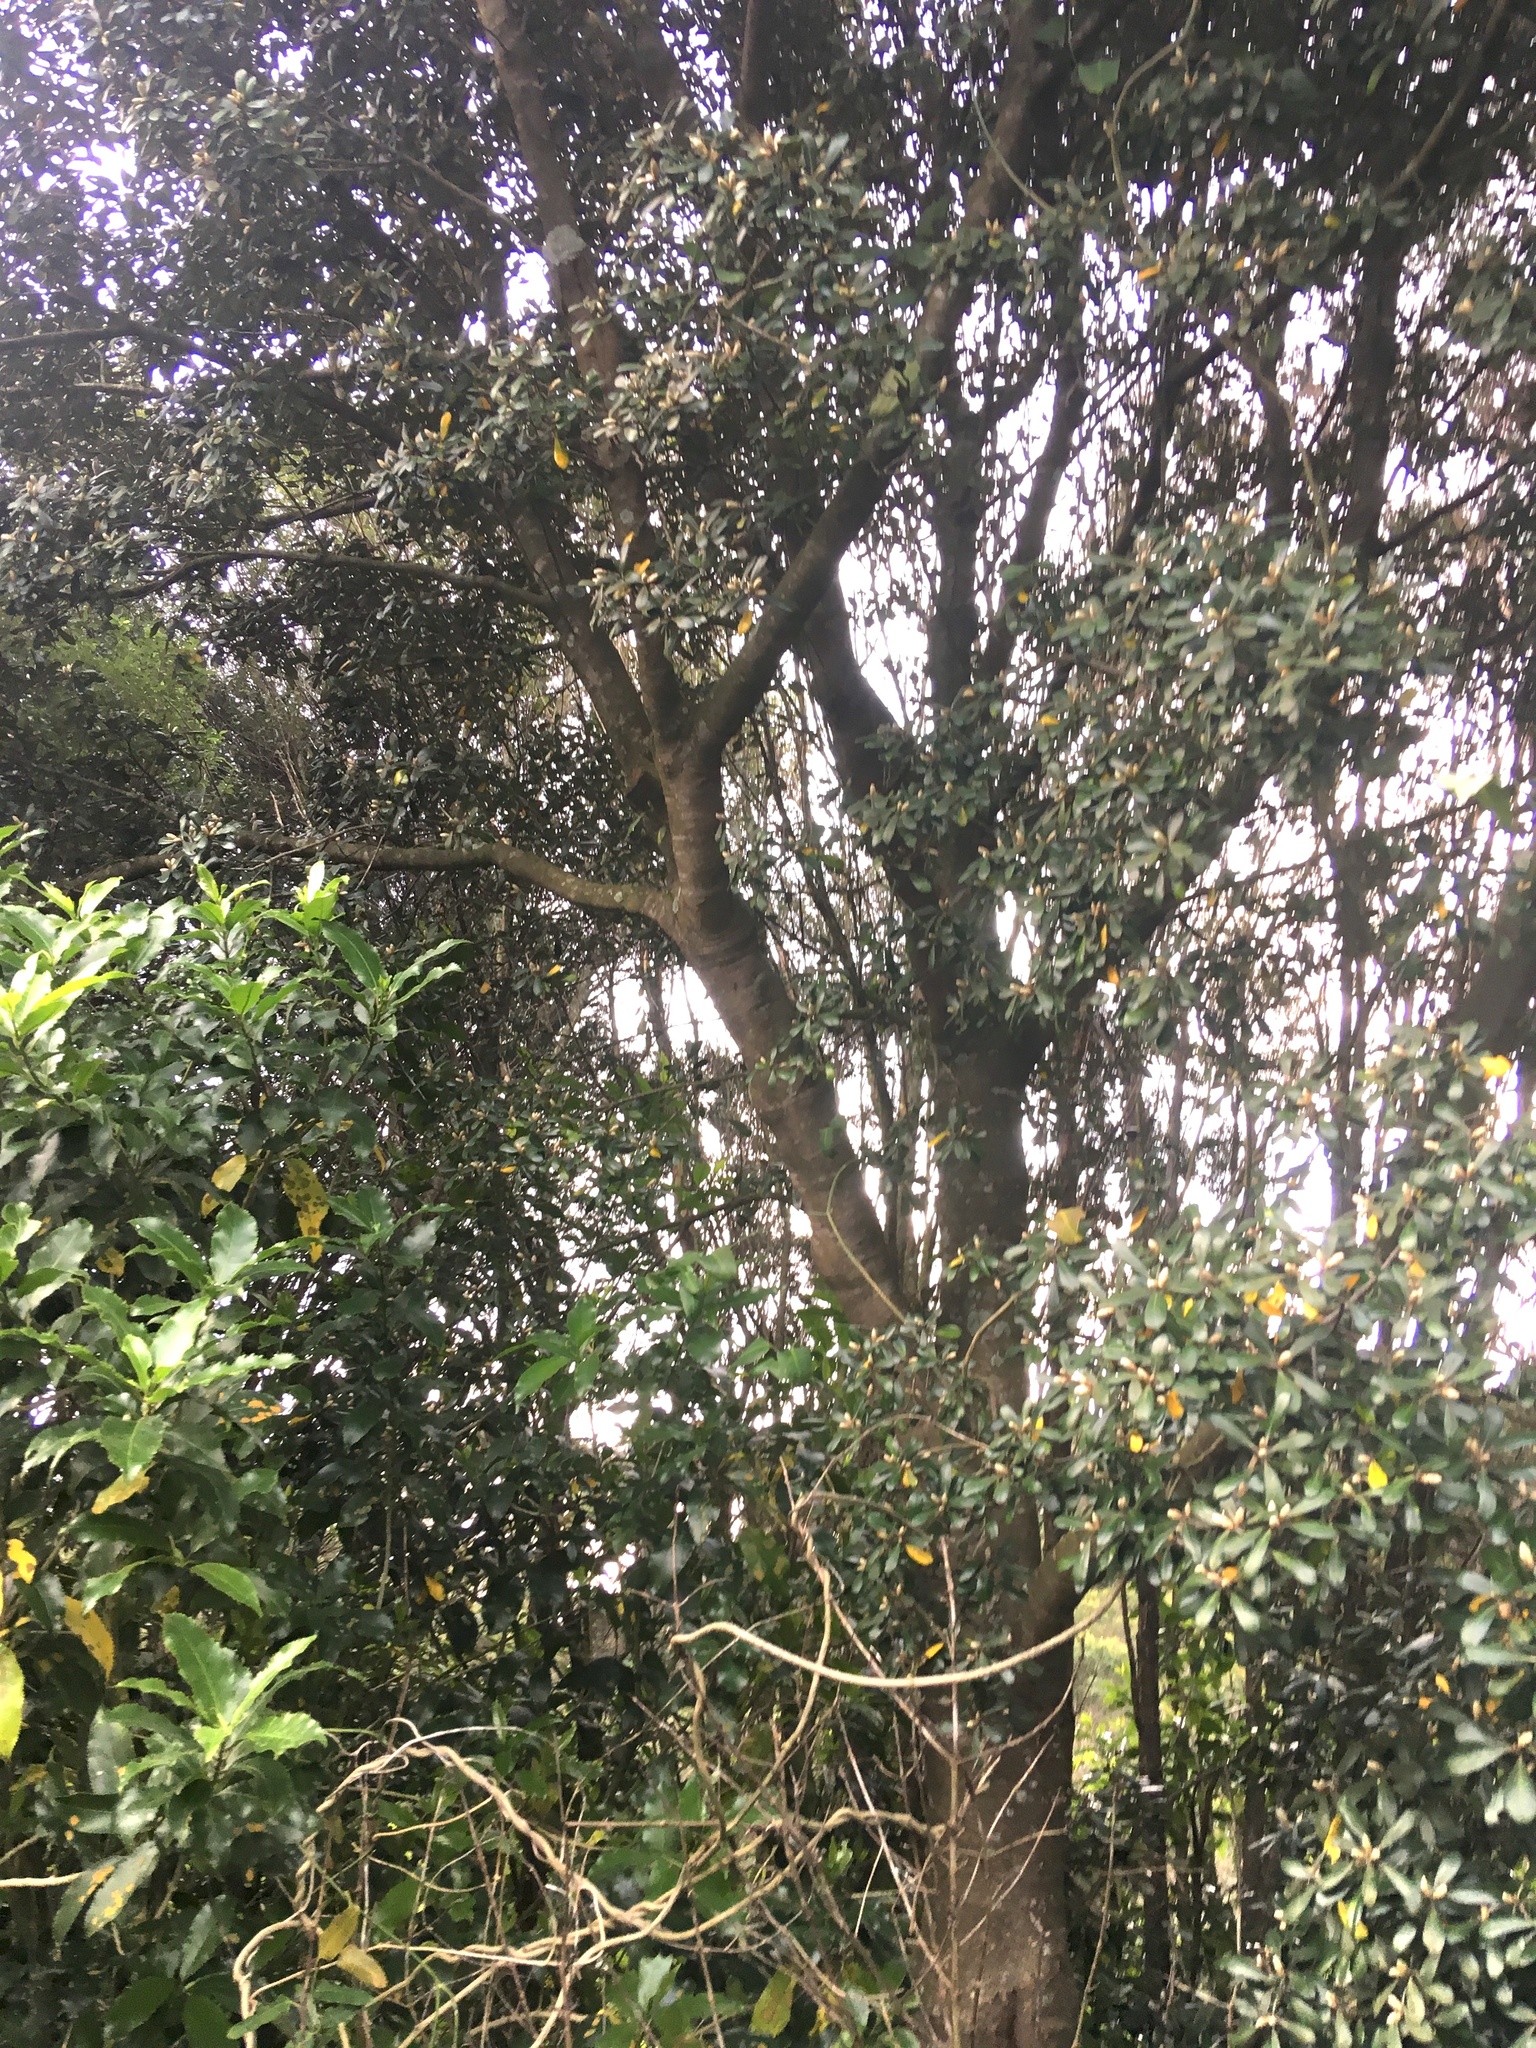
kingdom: Plantae
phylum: Tracheophyta
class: Magnoliopsida
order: Gentianales
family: Apocynaceae
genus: Araujia
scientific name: Araujia sericifera
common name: White bladderflower
